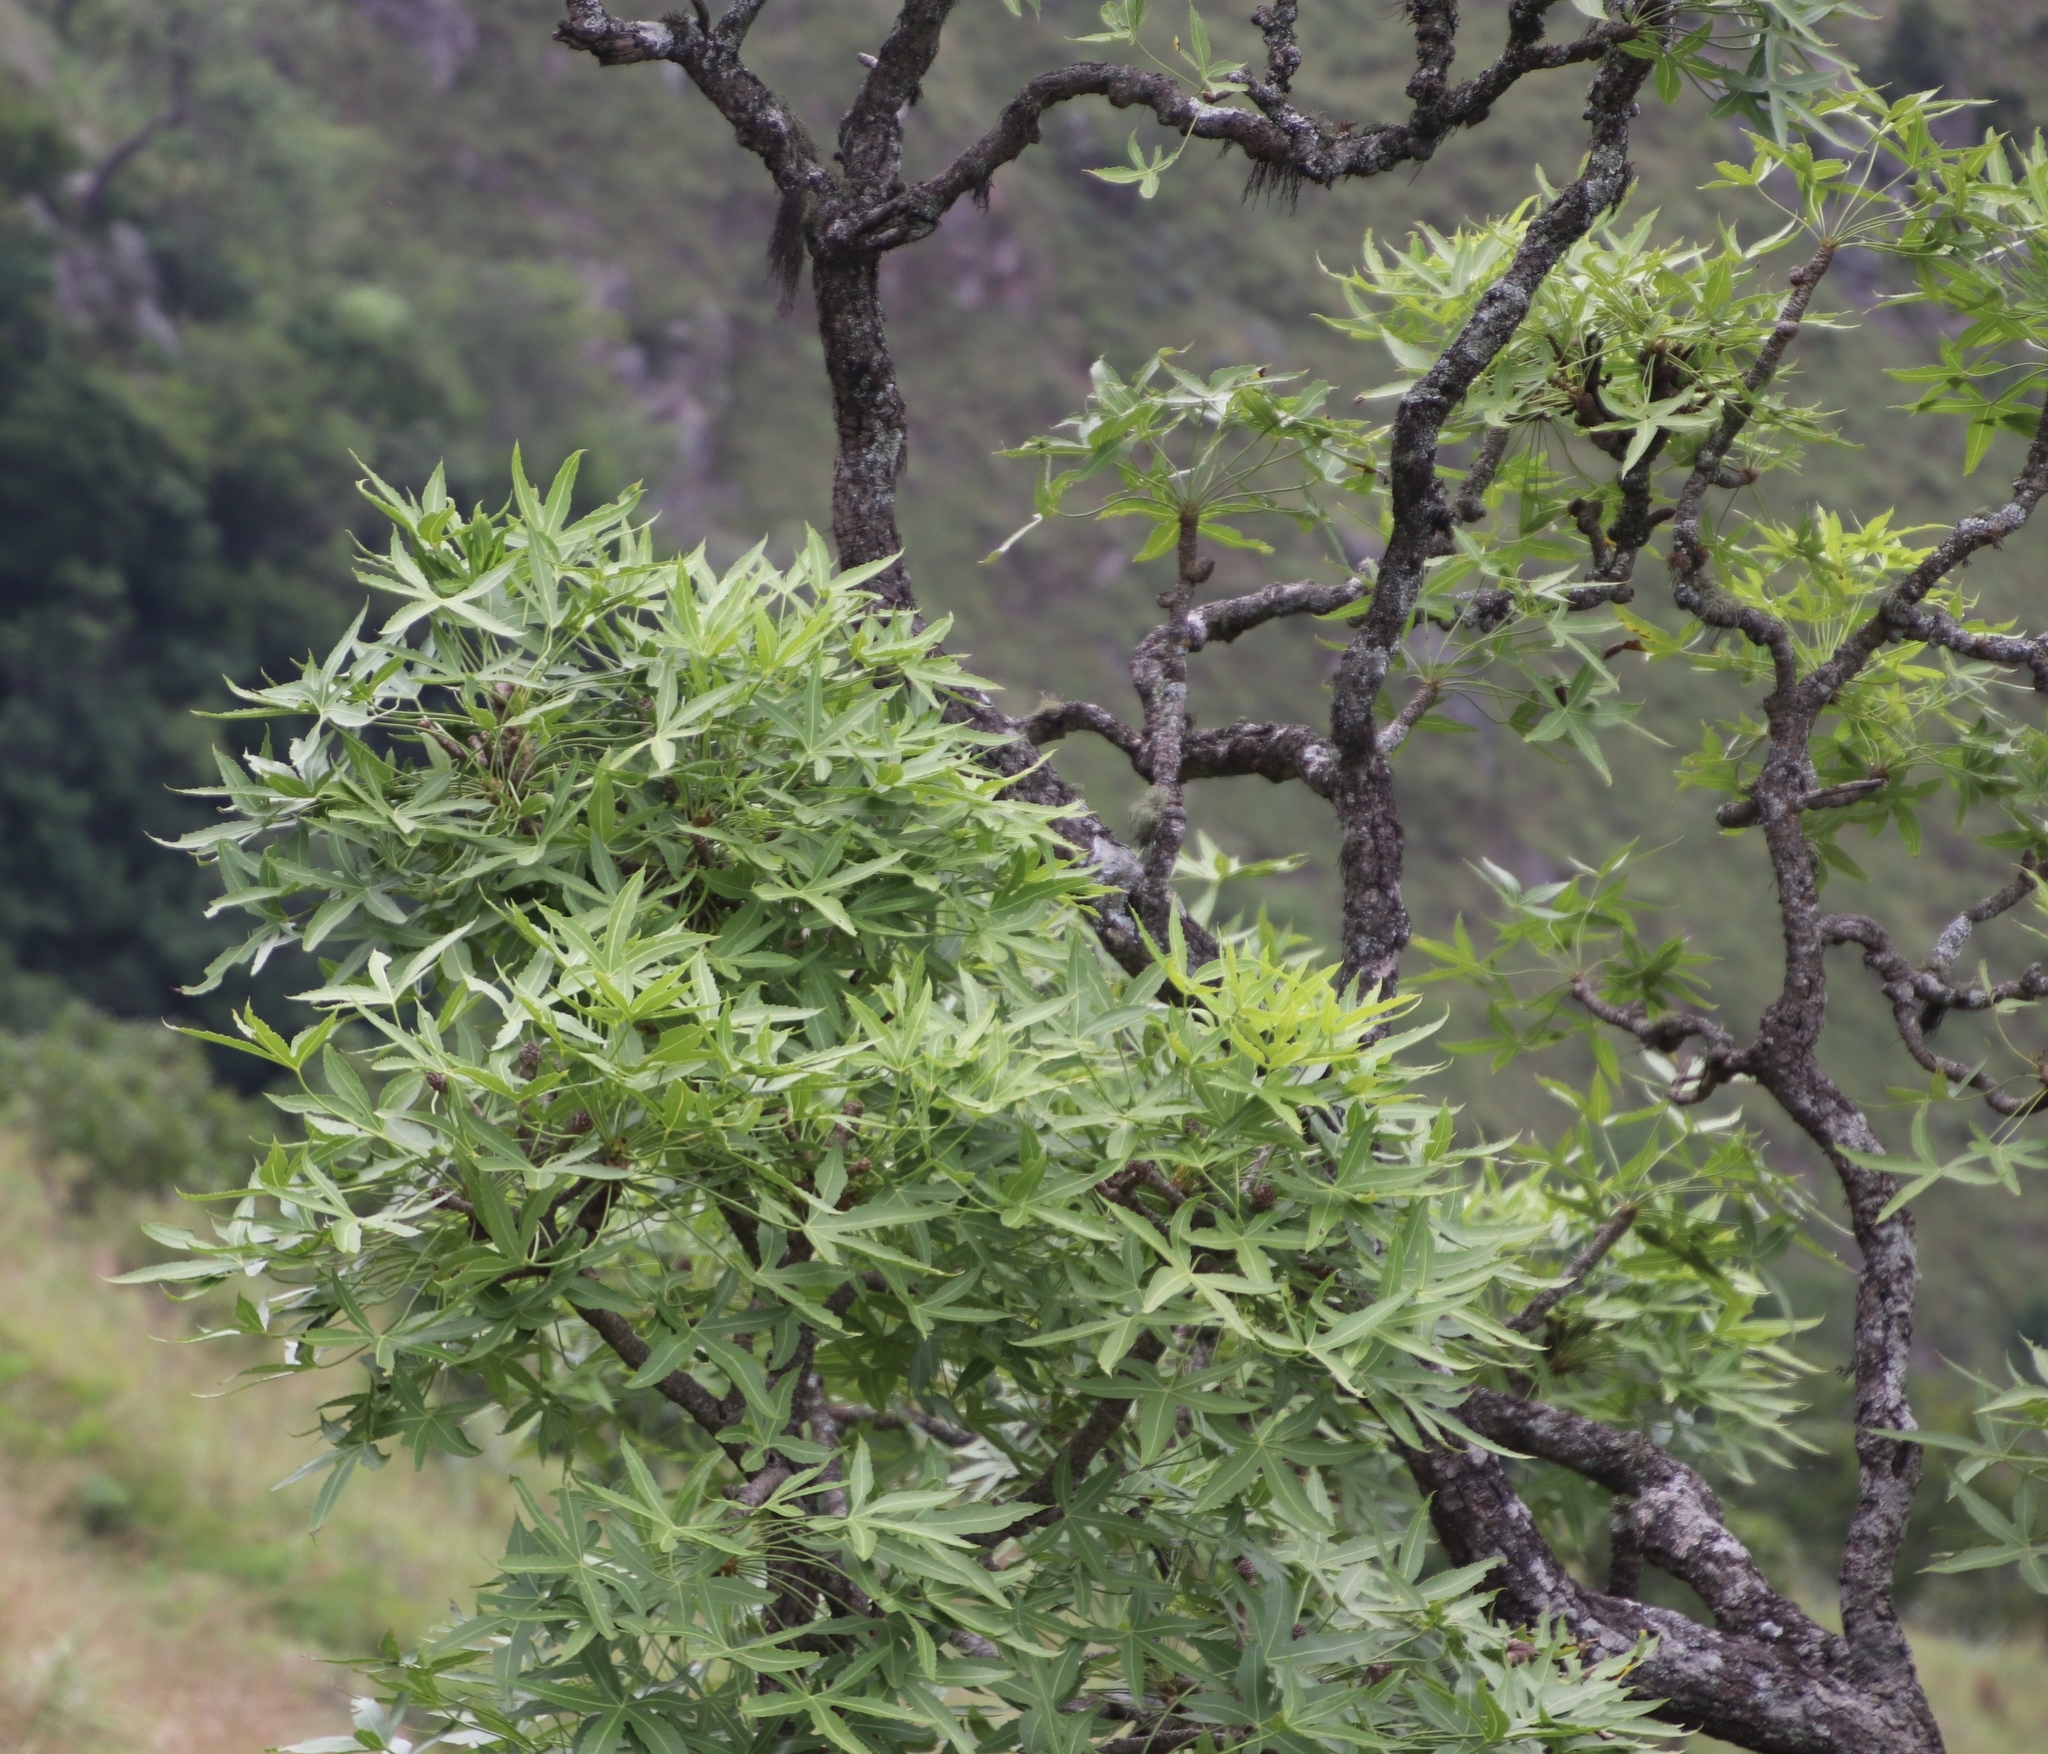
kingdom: Plantae
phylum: Tracheophyta
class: Magnoliopsida
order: Apiales
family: Araliaceae
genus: Cussonia
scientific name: Cussonia natalensis
